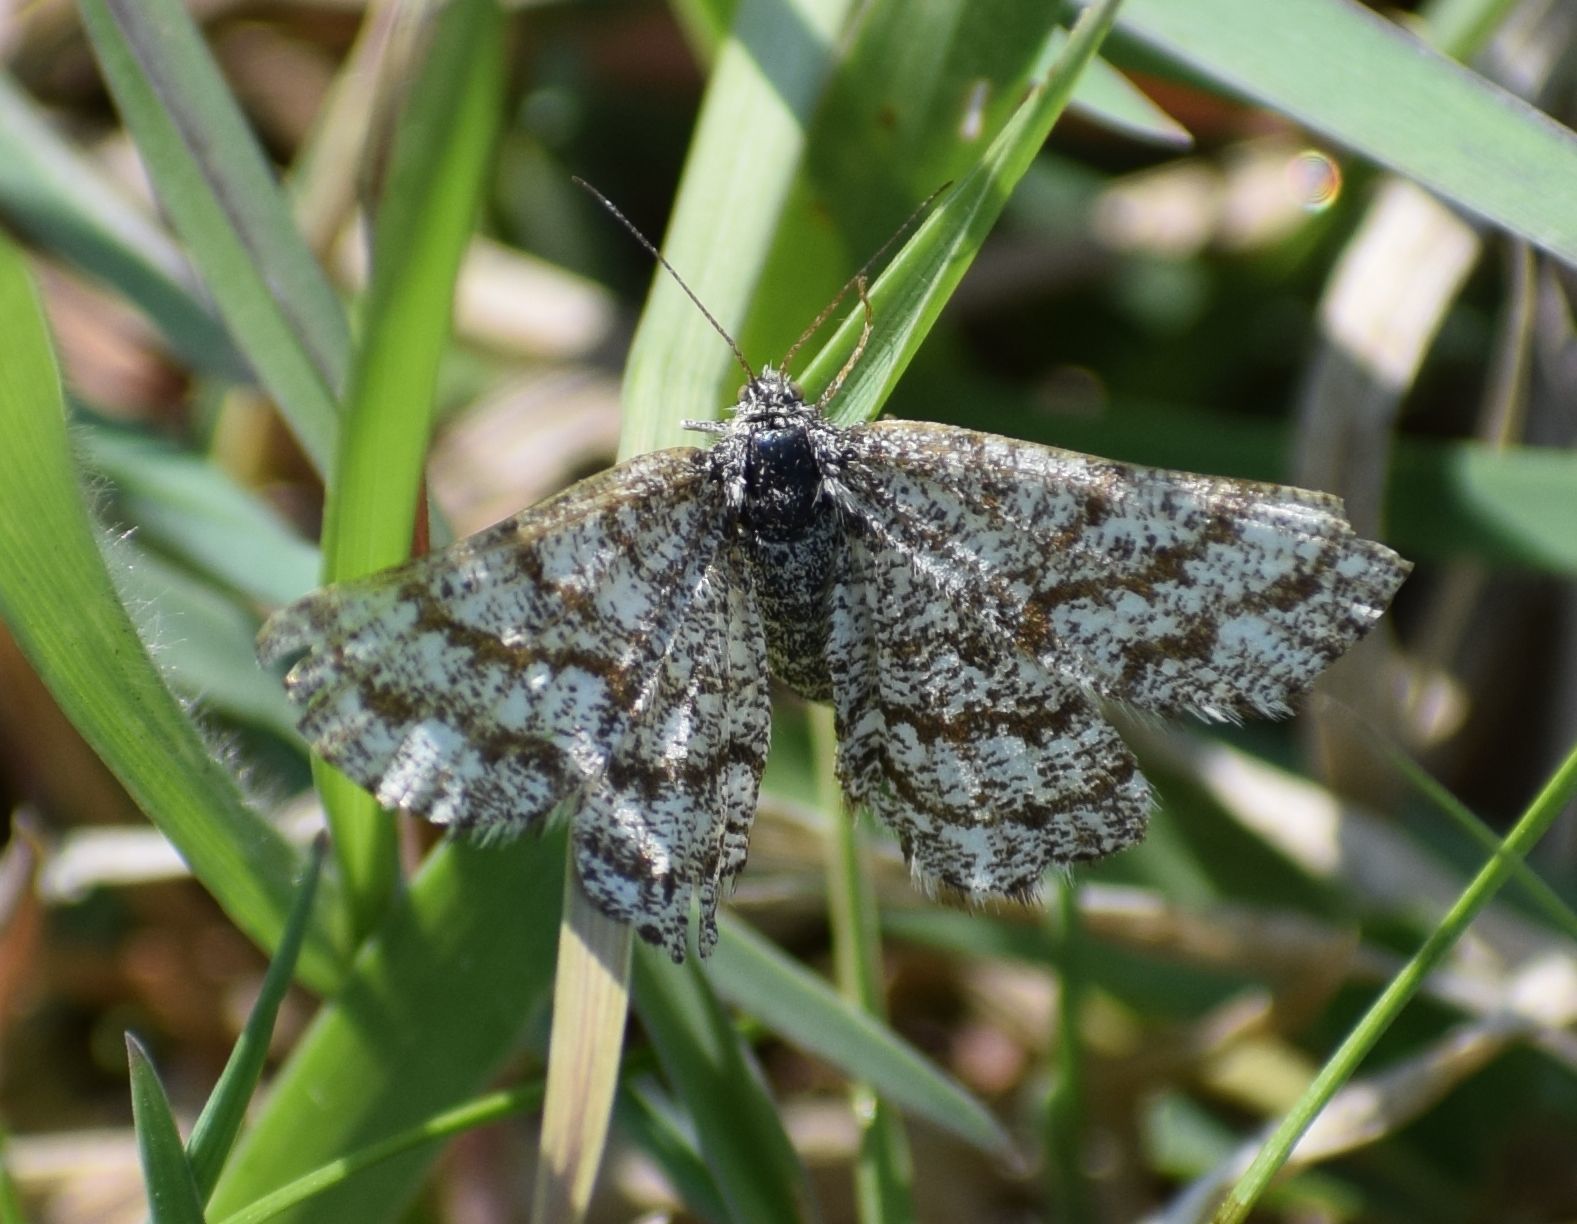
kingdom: Animalia
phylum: Arthropoda
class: Insecta
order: Lepidoptera
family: Geometridae
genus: Ematurga
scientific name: Ematurga atomaria
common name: Common heath
